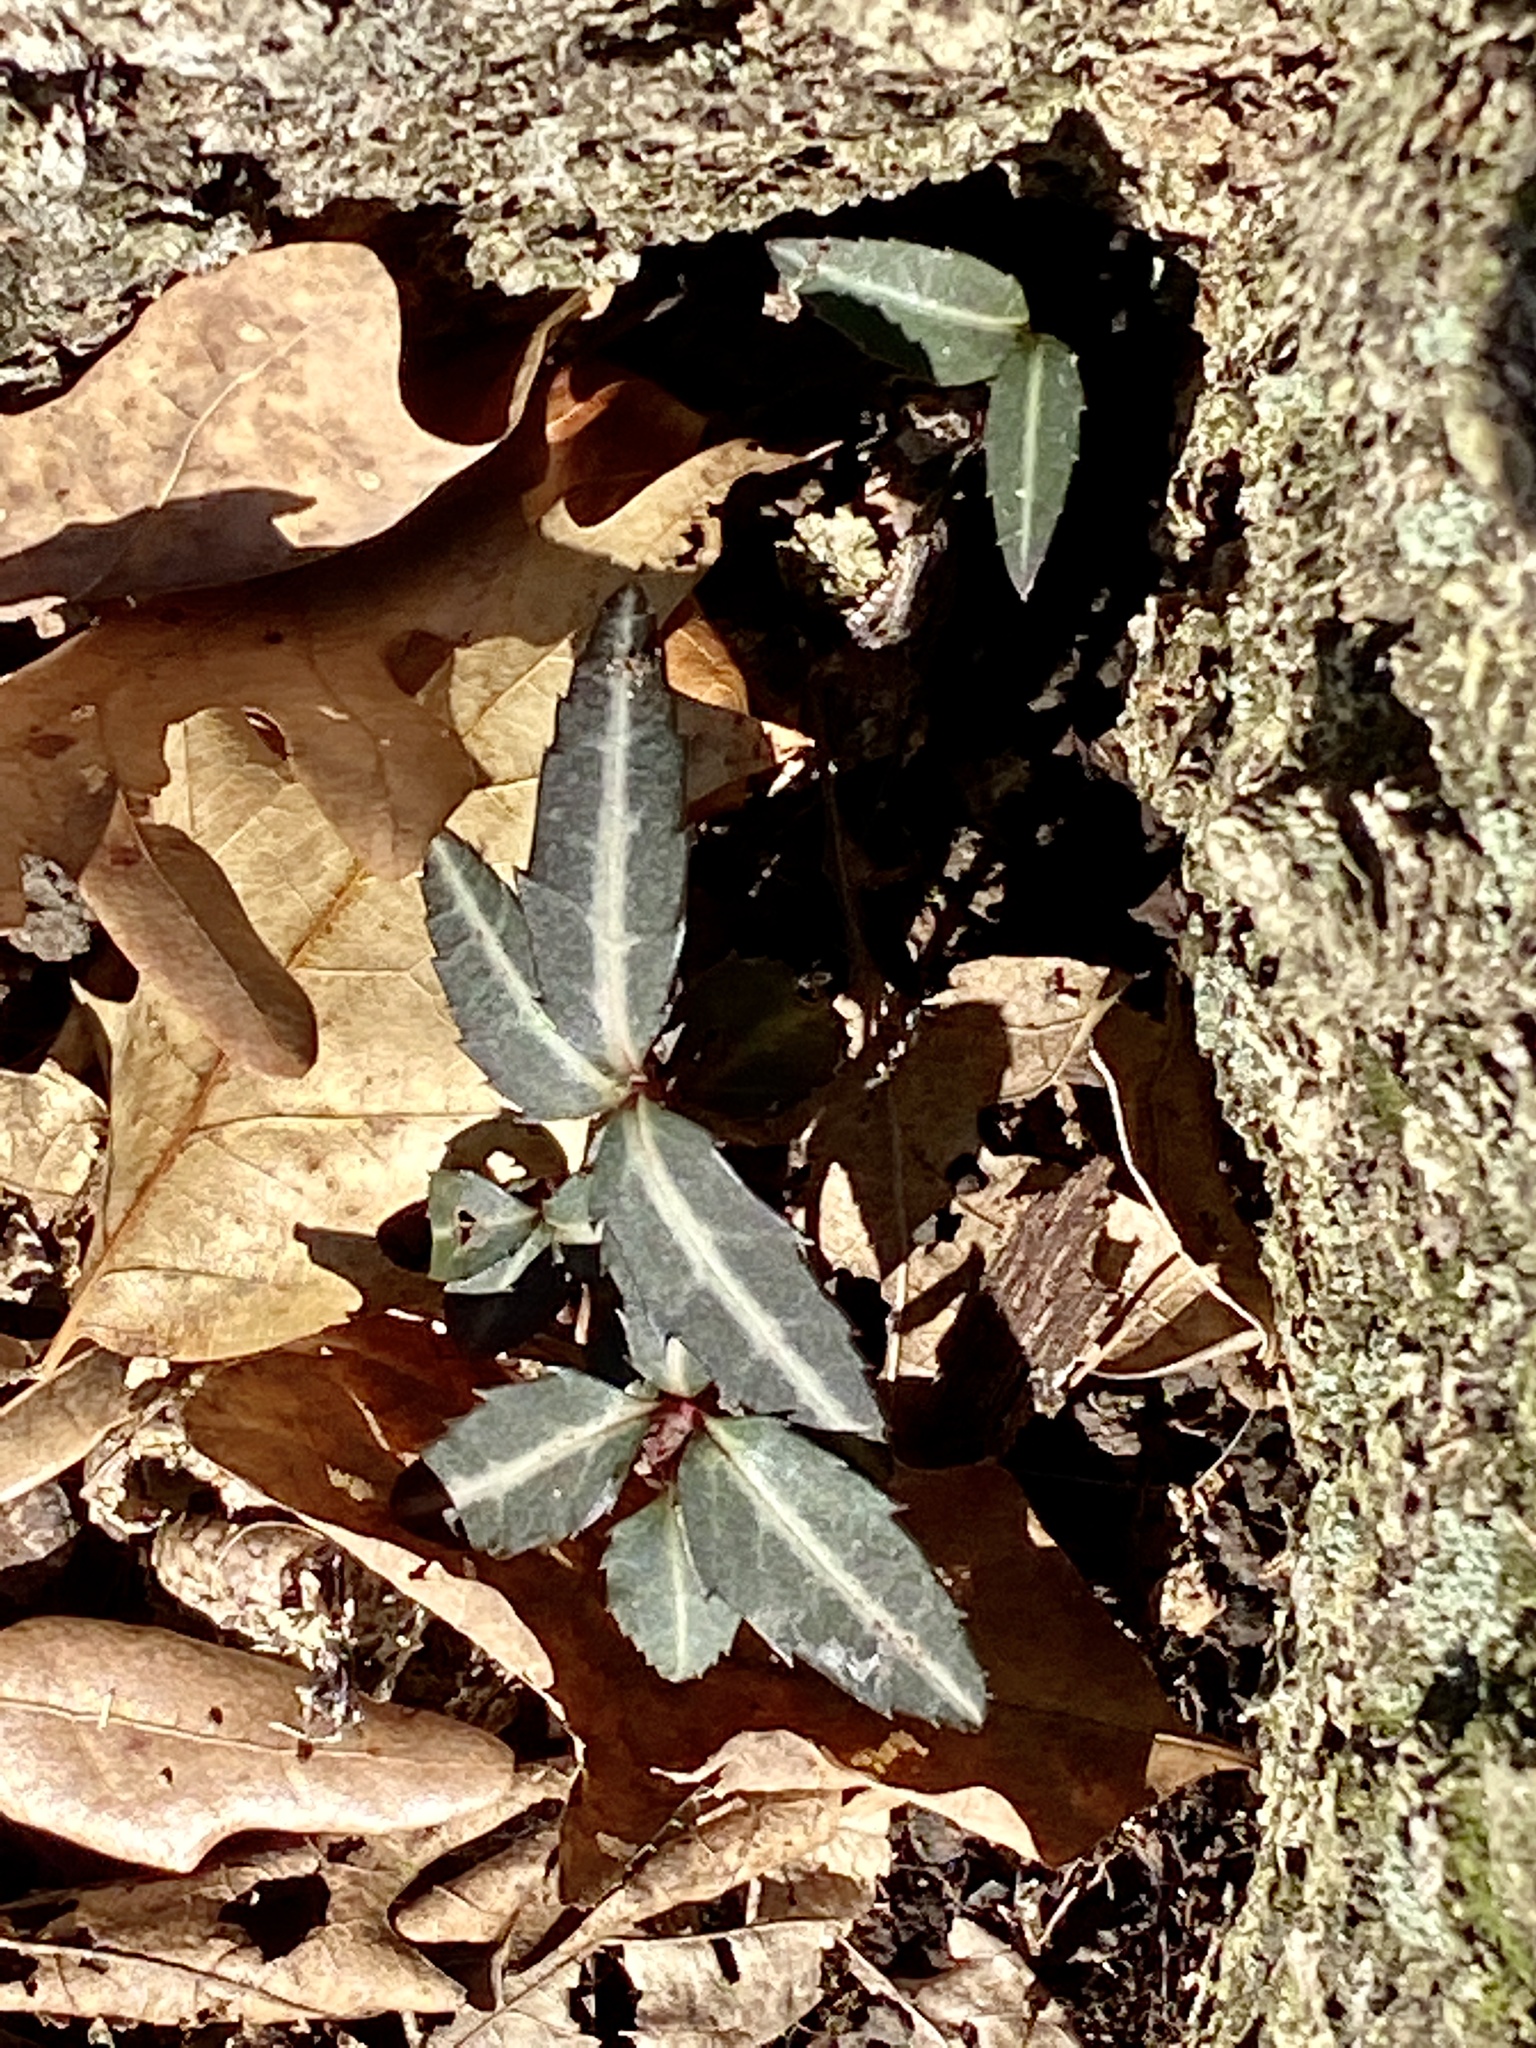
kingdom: Plantae
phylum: Tracheophyta
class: Magnoliopsida
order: Ericales
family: Ericaceae
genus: Chimaphila
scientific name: Chimaphila maculata
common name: Spotted pipsissewa
